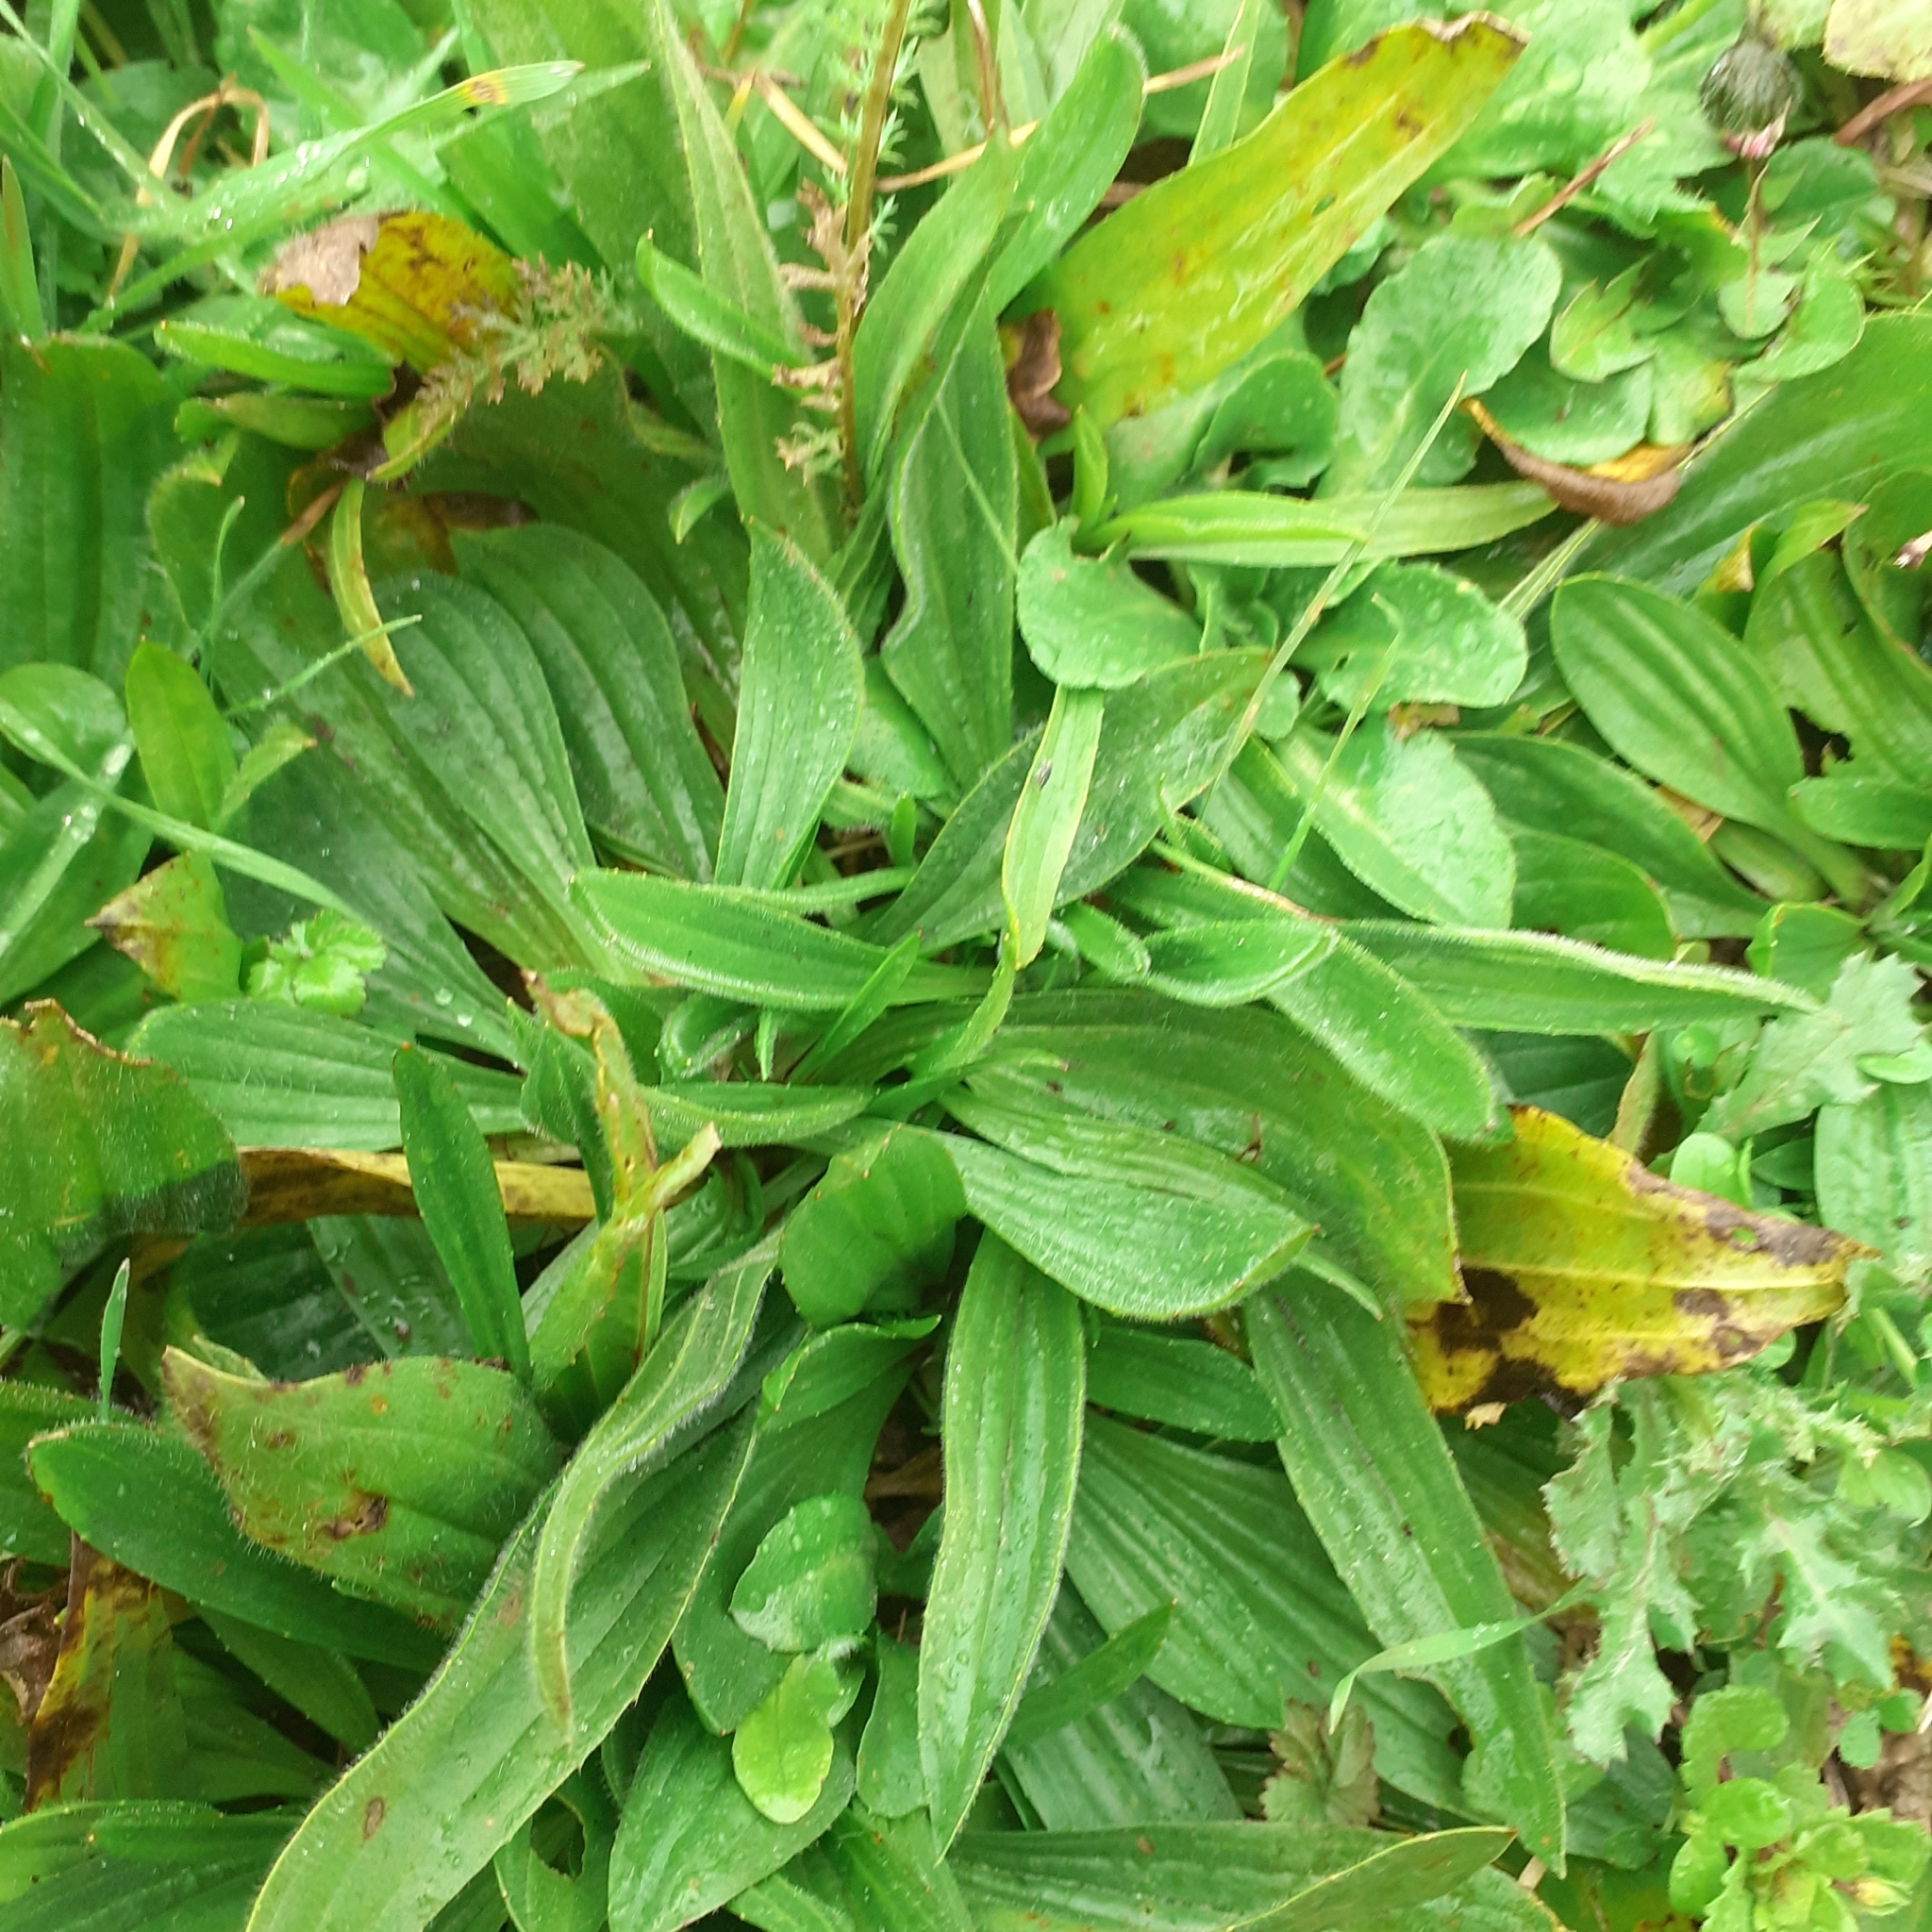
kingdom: Plantae
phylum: Tracheophyta
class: Magnoliopsida
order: Lamiales
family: Plantaginaceae
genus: Plantago
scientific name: Plantago lanceolata
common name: Ribwort plantain
